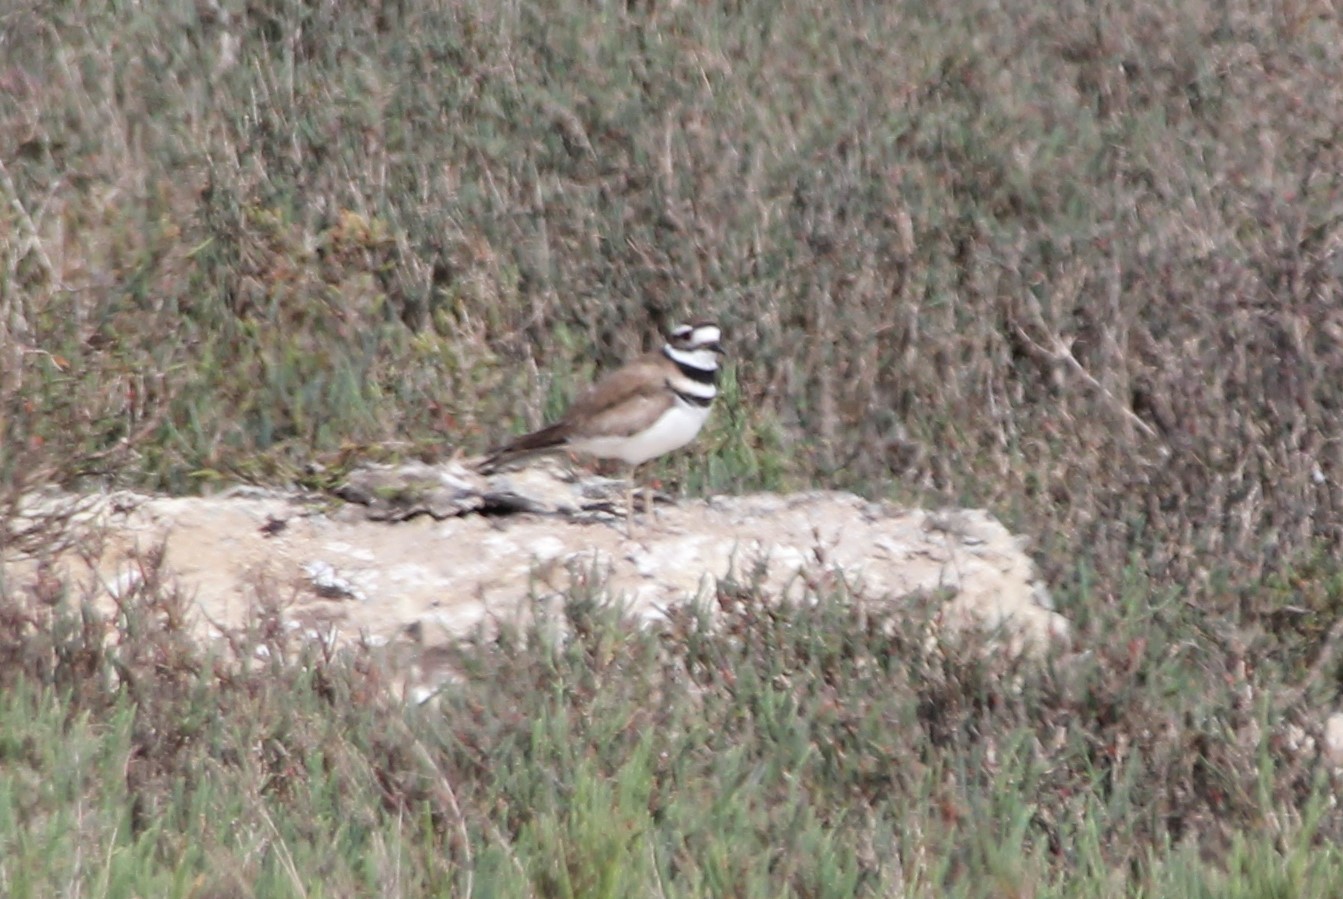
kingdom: Animalia
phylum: Chordata
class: Aves
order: Charadriiformes
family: Charadriidae
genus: Charadrius
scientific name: Charadrius vociferus
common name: Killdeer
